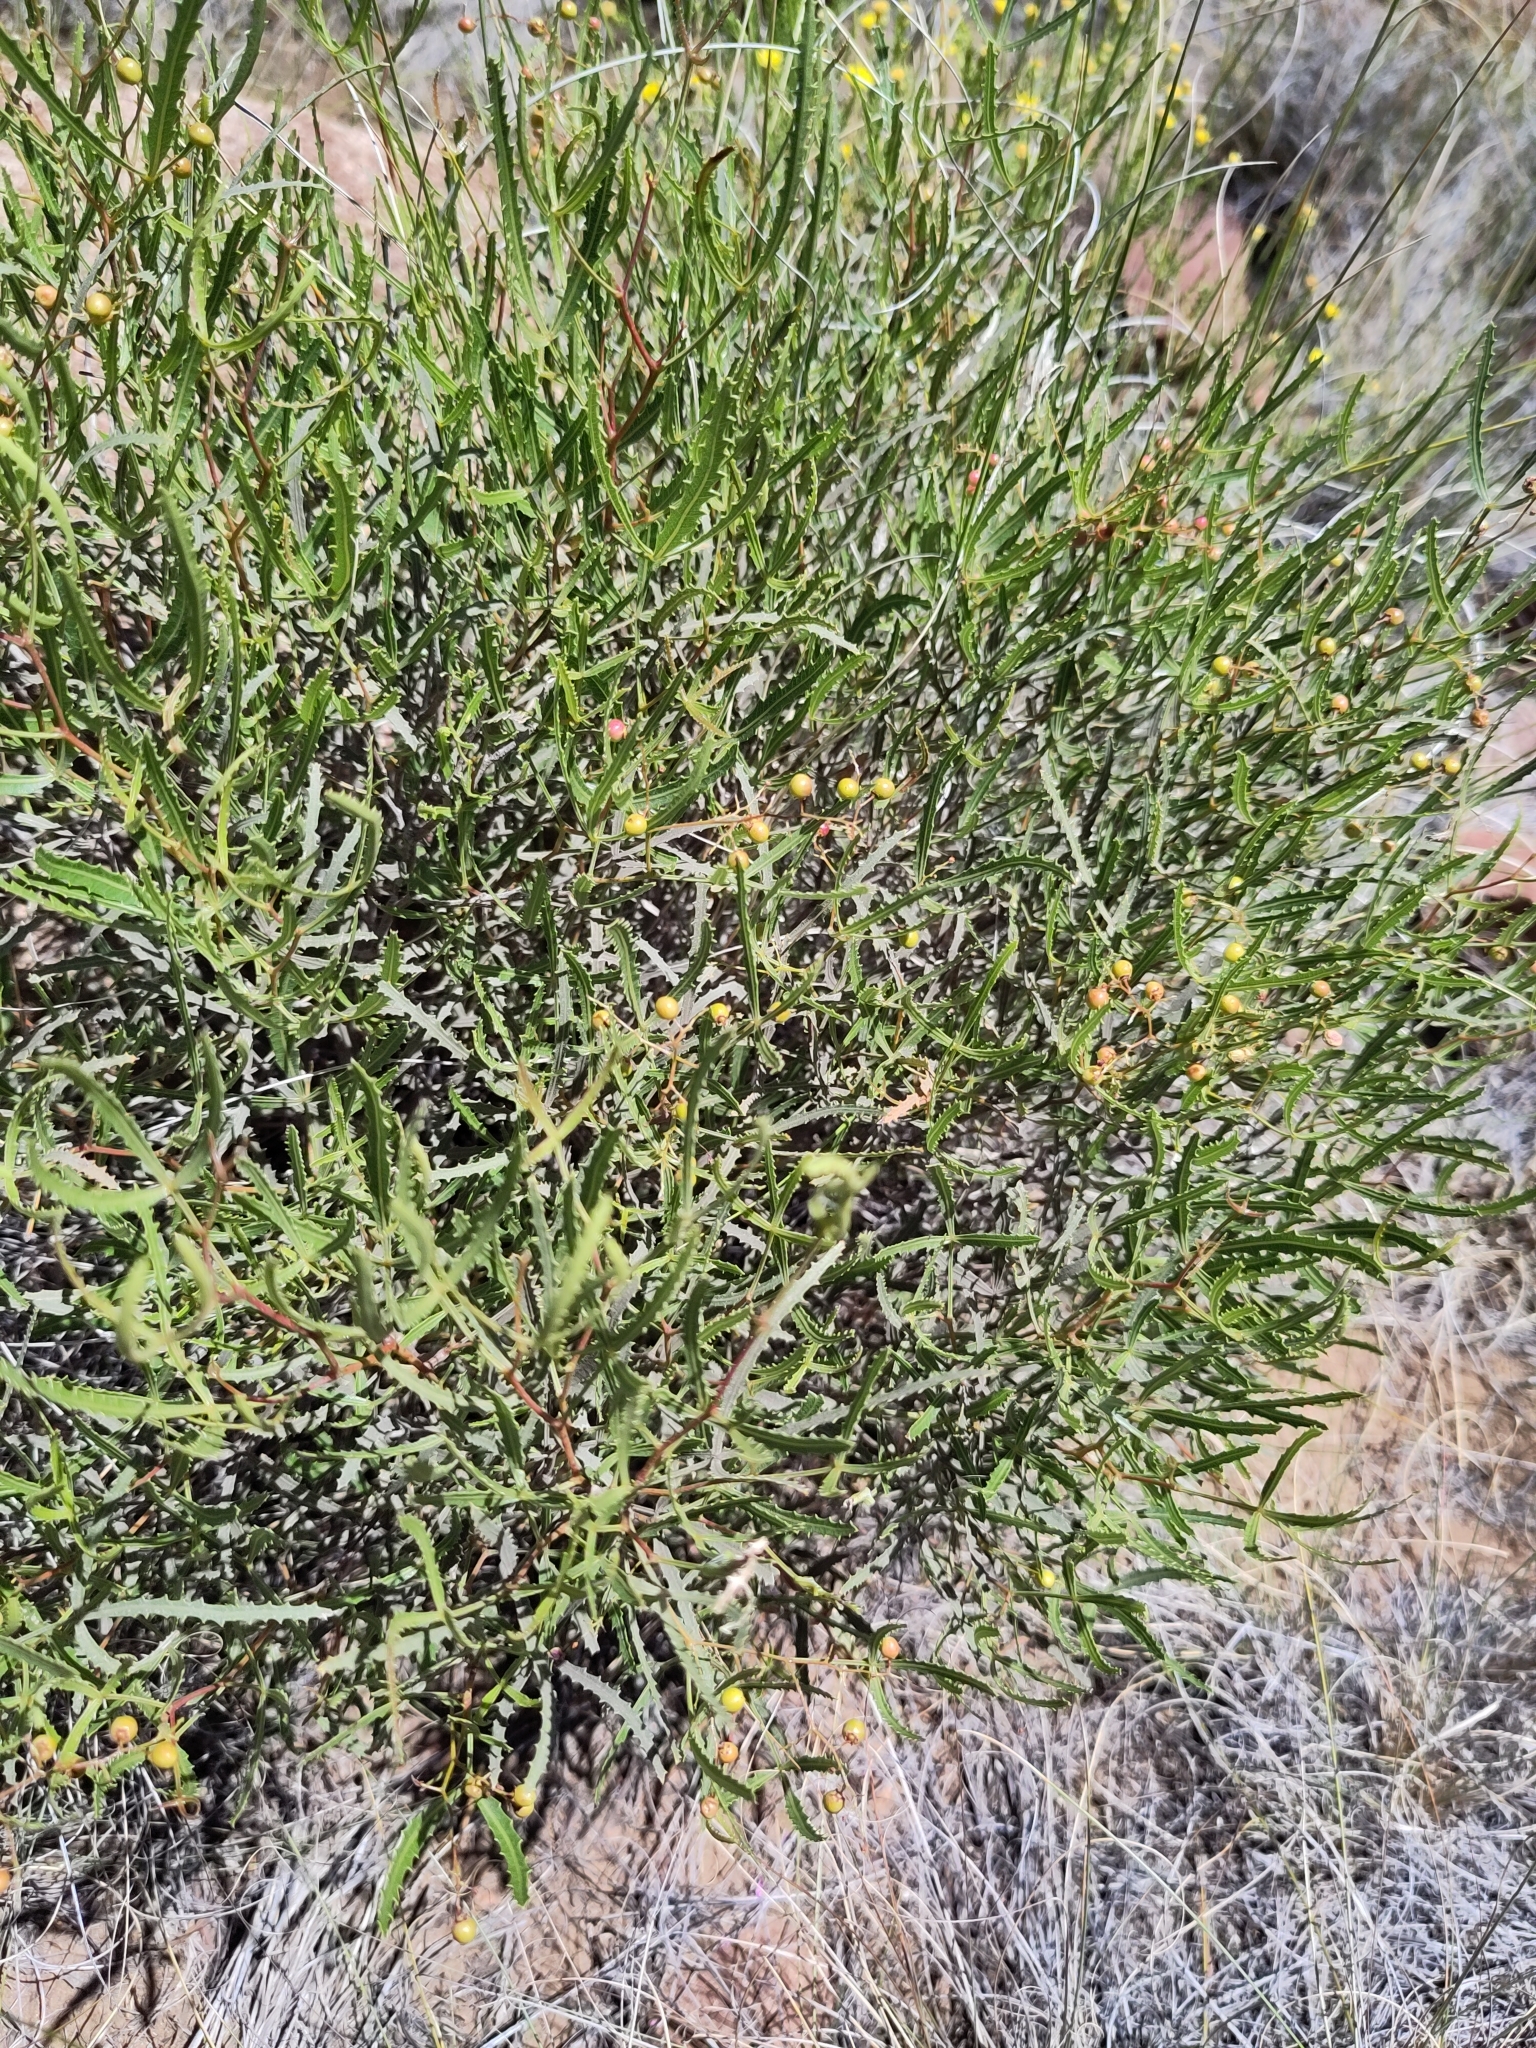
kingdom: Plantae
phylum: Tracheophyta
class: Magnoliopsida
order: Sapindales
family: Anacardiaceae
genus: Searsia
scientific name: Searsia erosa
